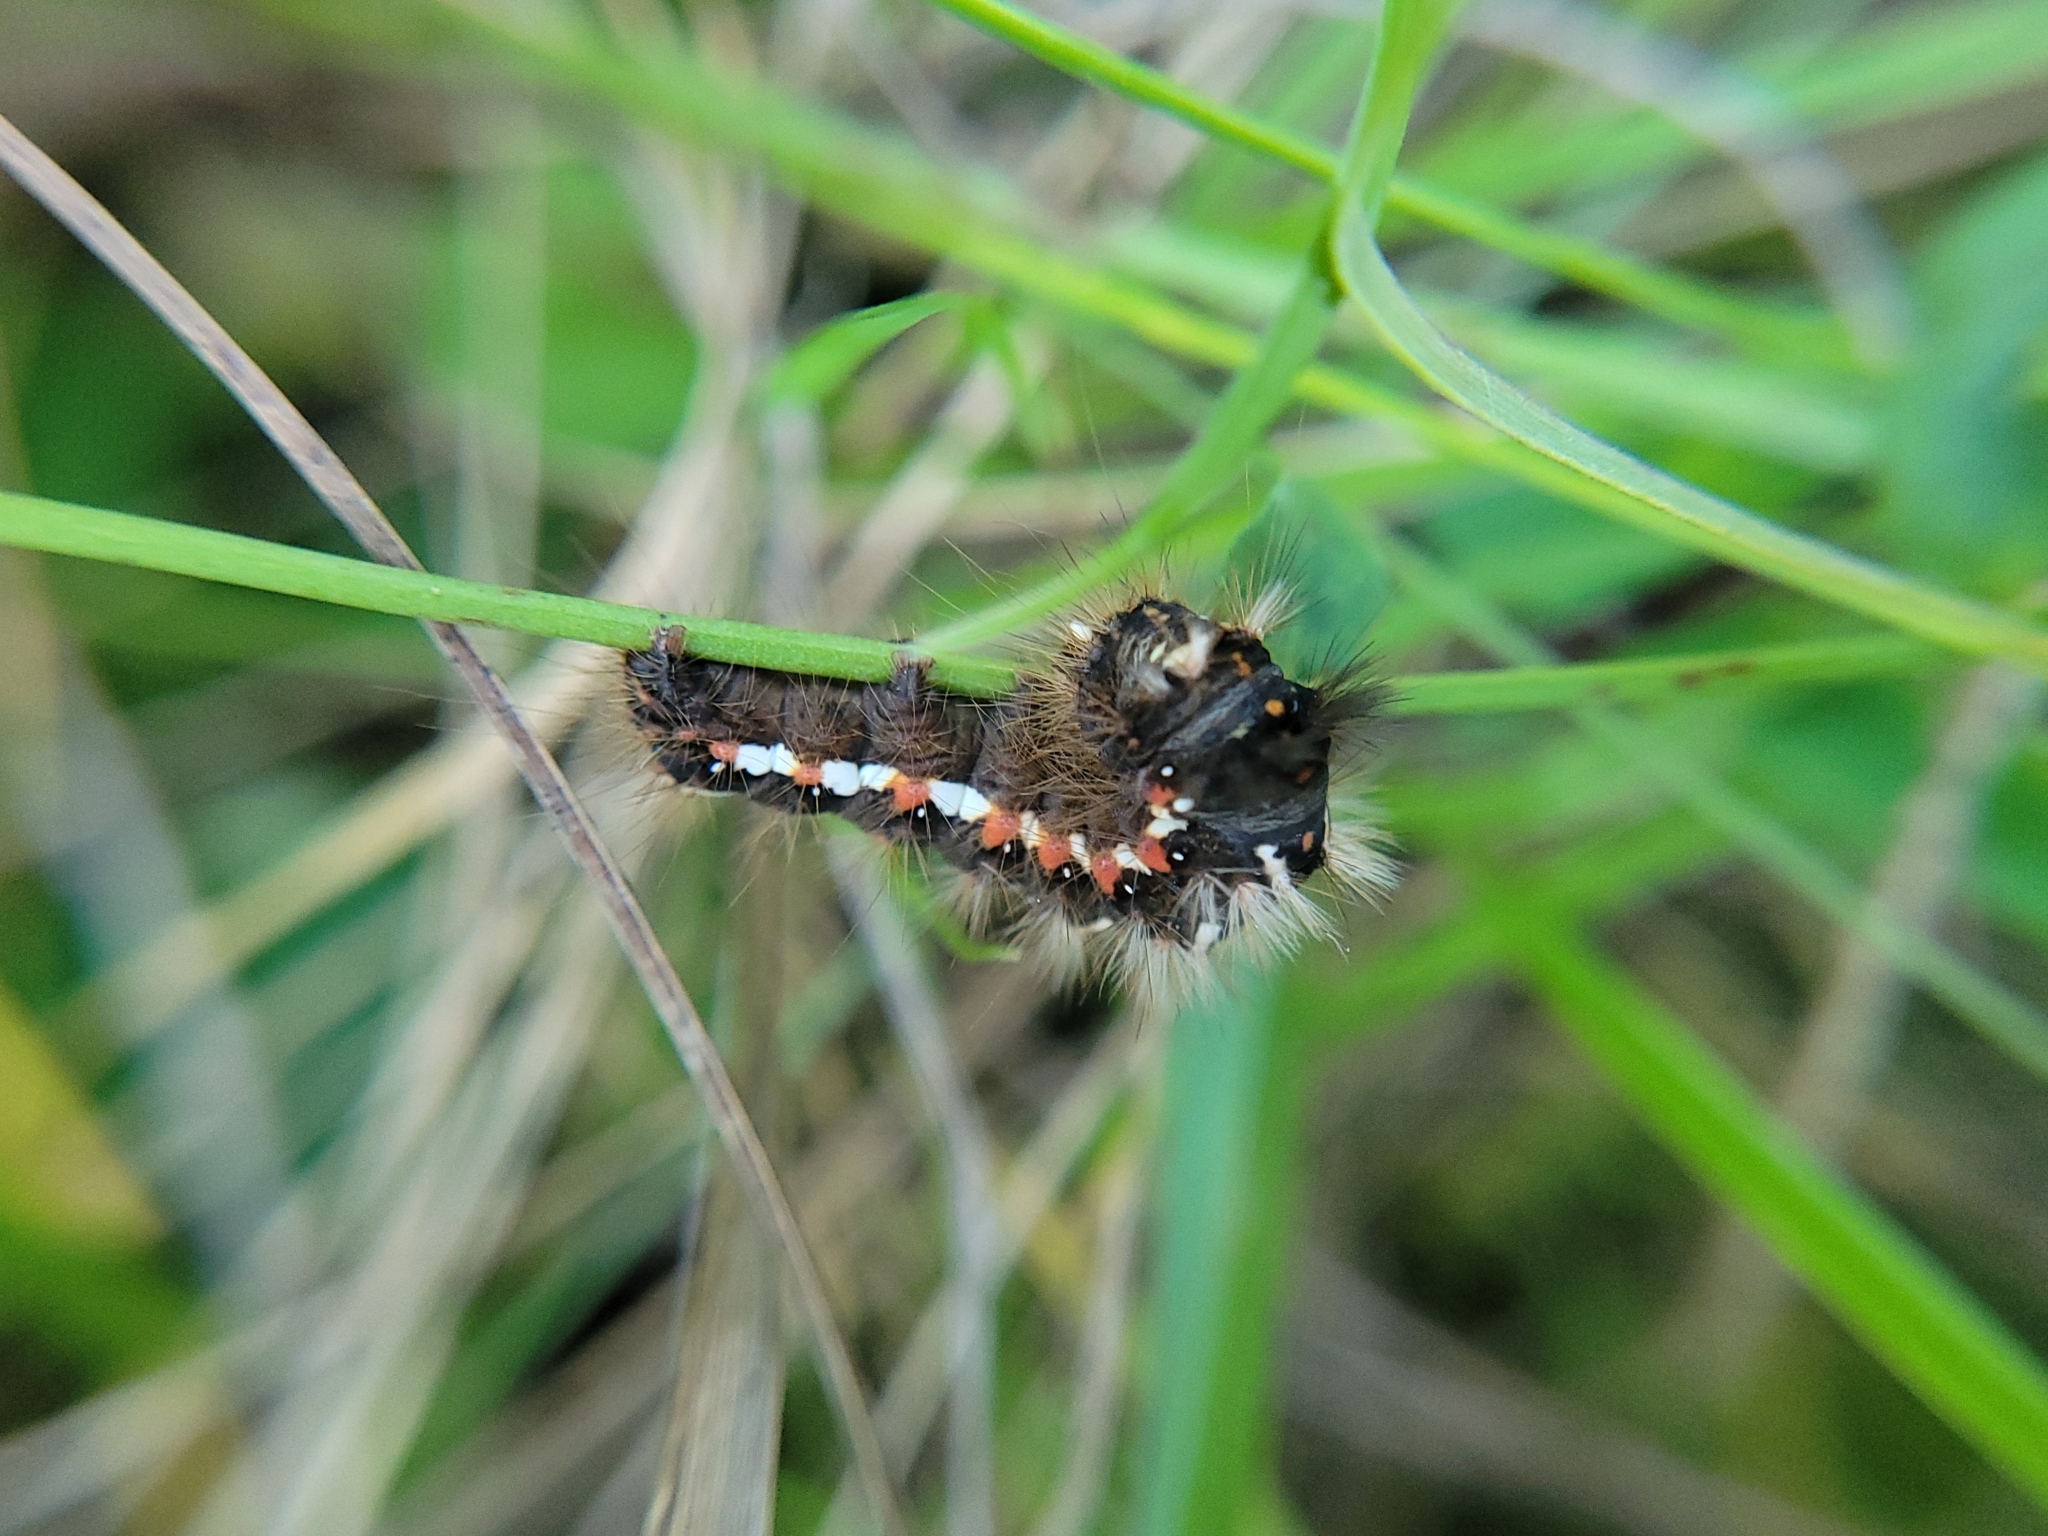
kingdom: Animalia
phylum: Arthropoda
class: Insecta
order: Lepidoptera
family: Noctuidae
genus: Acronicta
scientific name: Acronicta rumicis
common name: Knot grass
